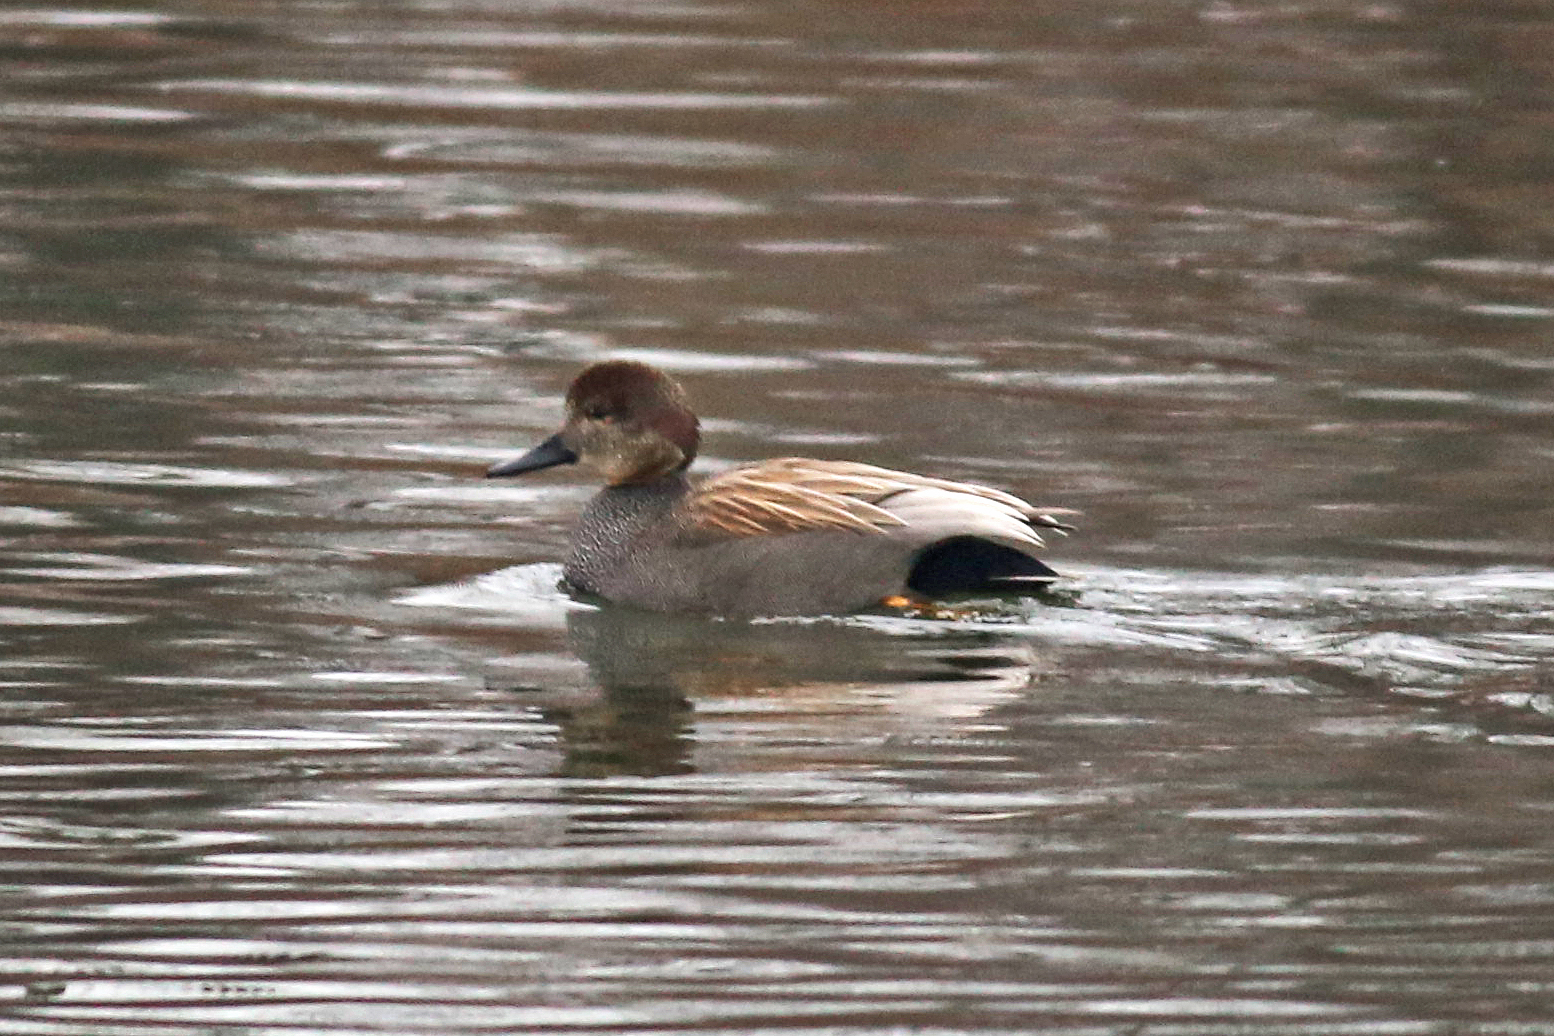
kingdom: Animalia
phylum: Chordata
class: Aves
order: Anseriformes
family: Anatidae
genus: Mareca
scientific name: Mareca strepera
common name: Gadwall
